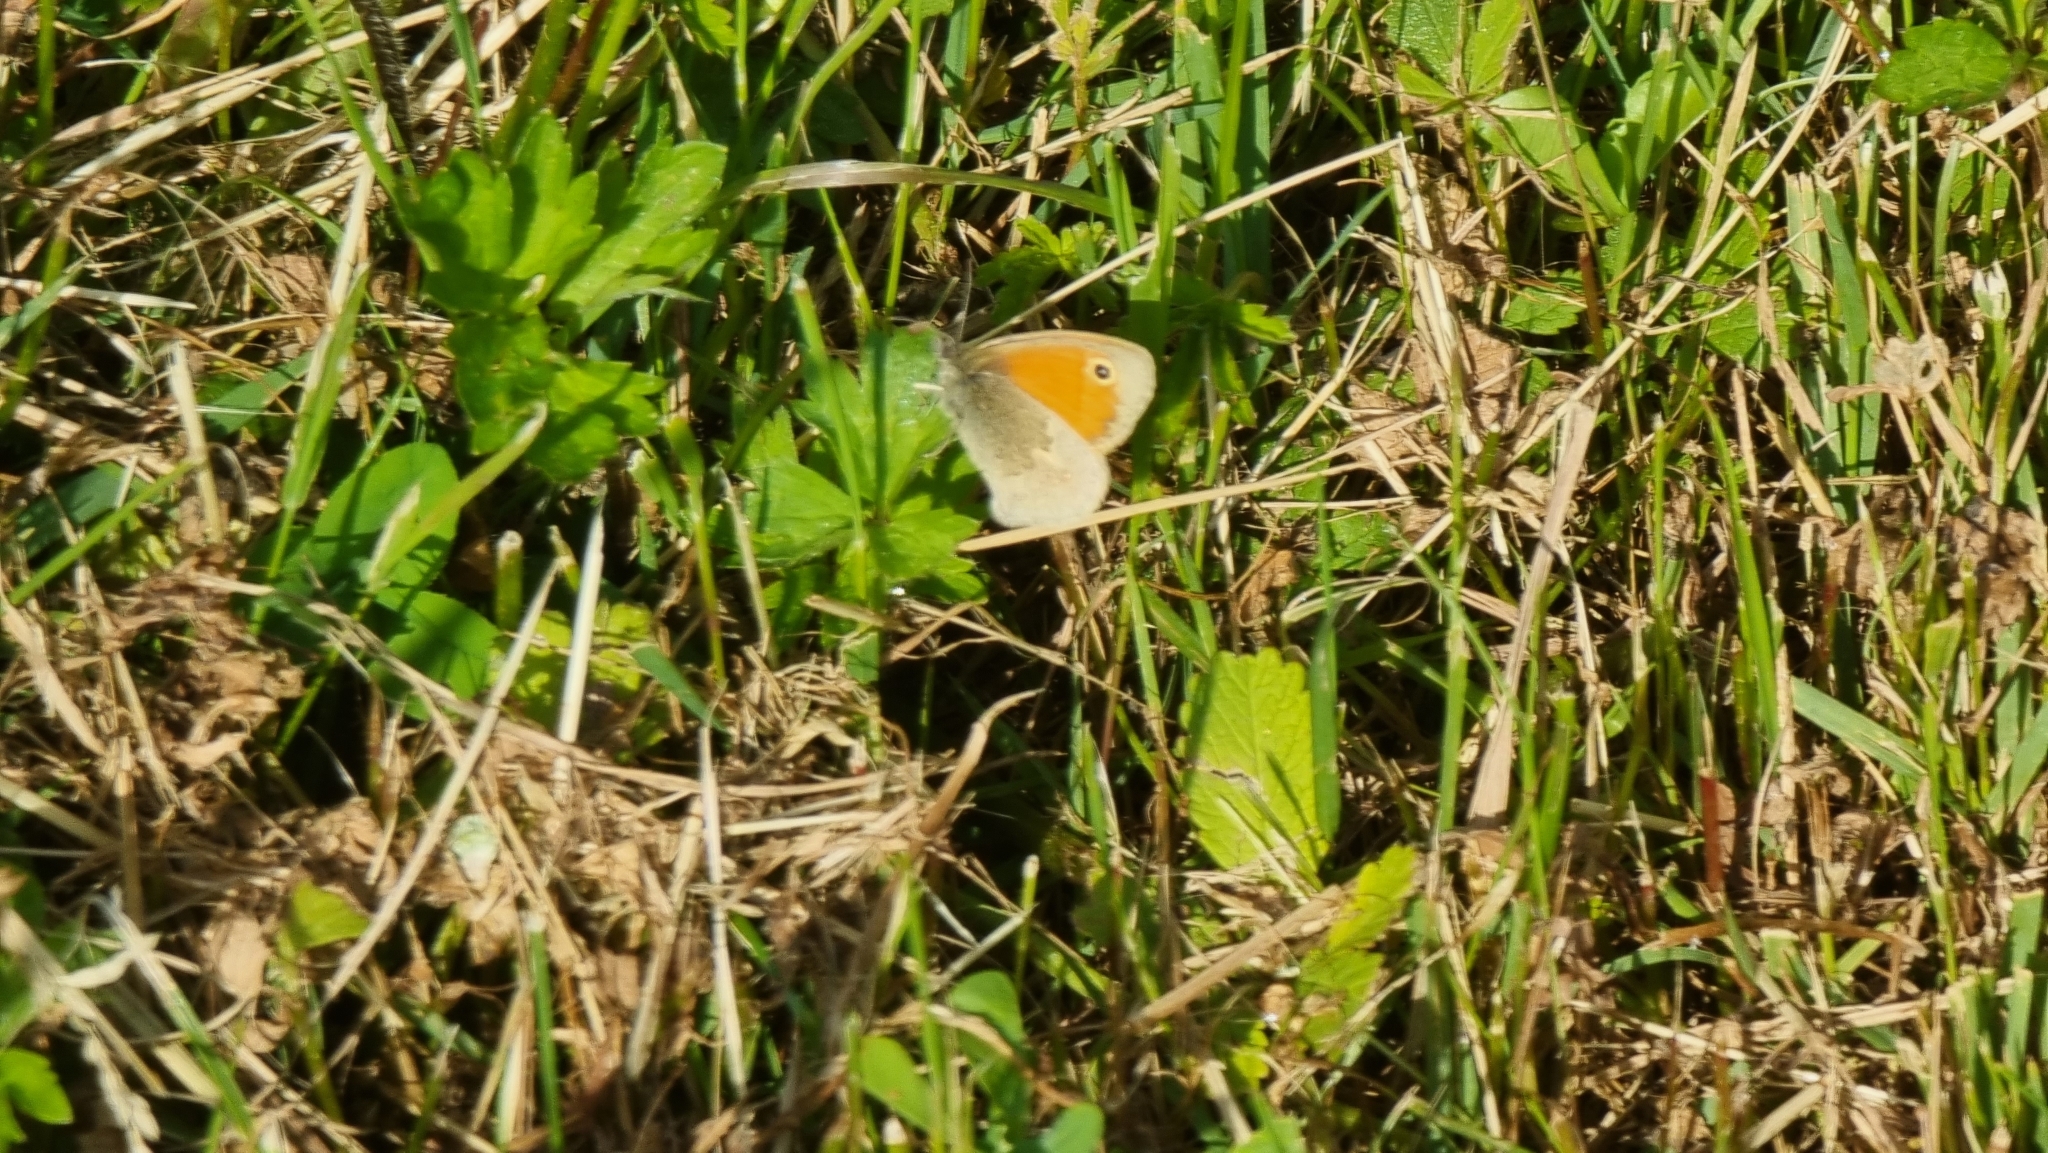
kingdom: Animalia
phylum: Arthropoda
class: Insecta
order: Lepidoptera
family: Nymphalidae
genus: Coenonympha
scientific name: Coenonympha pamphilus
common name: Small heath
